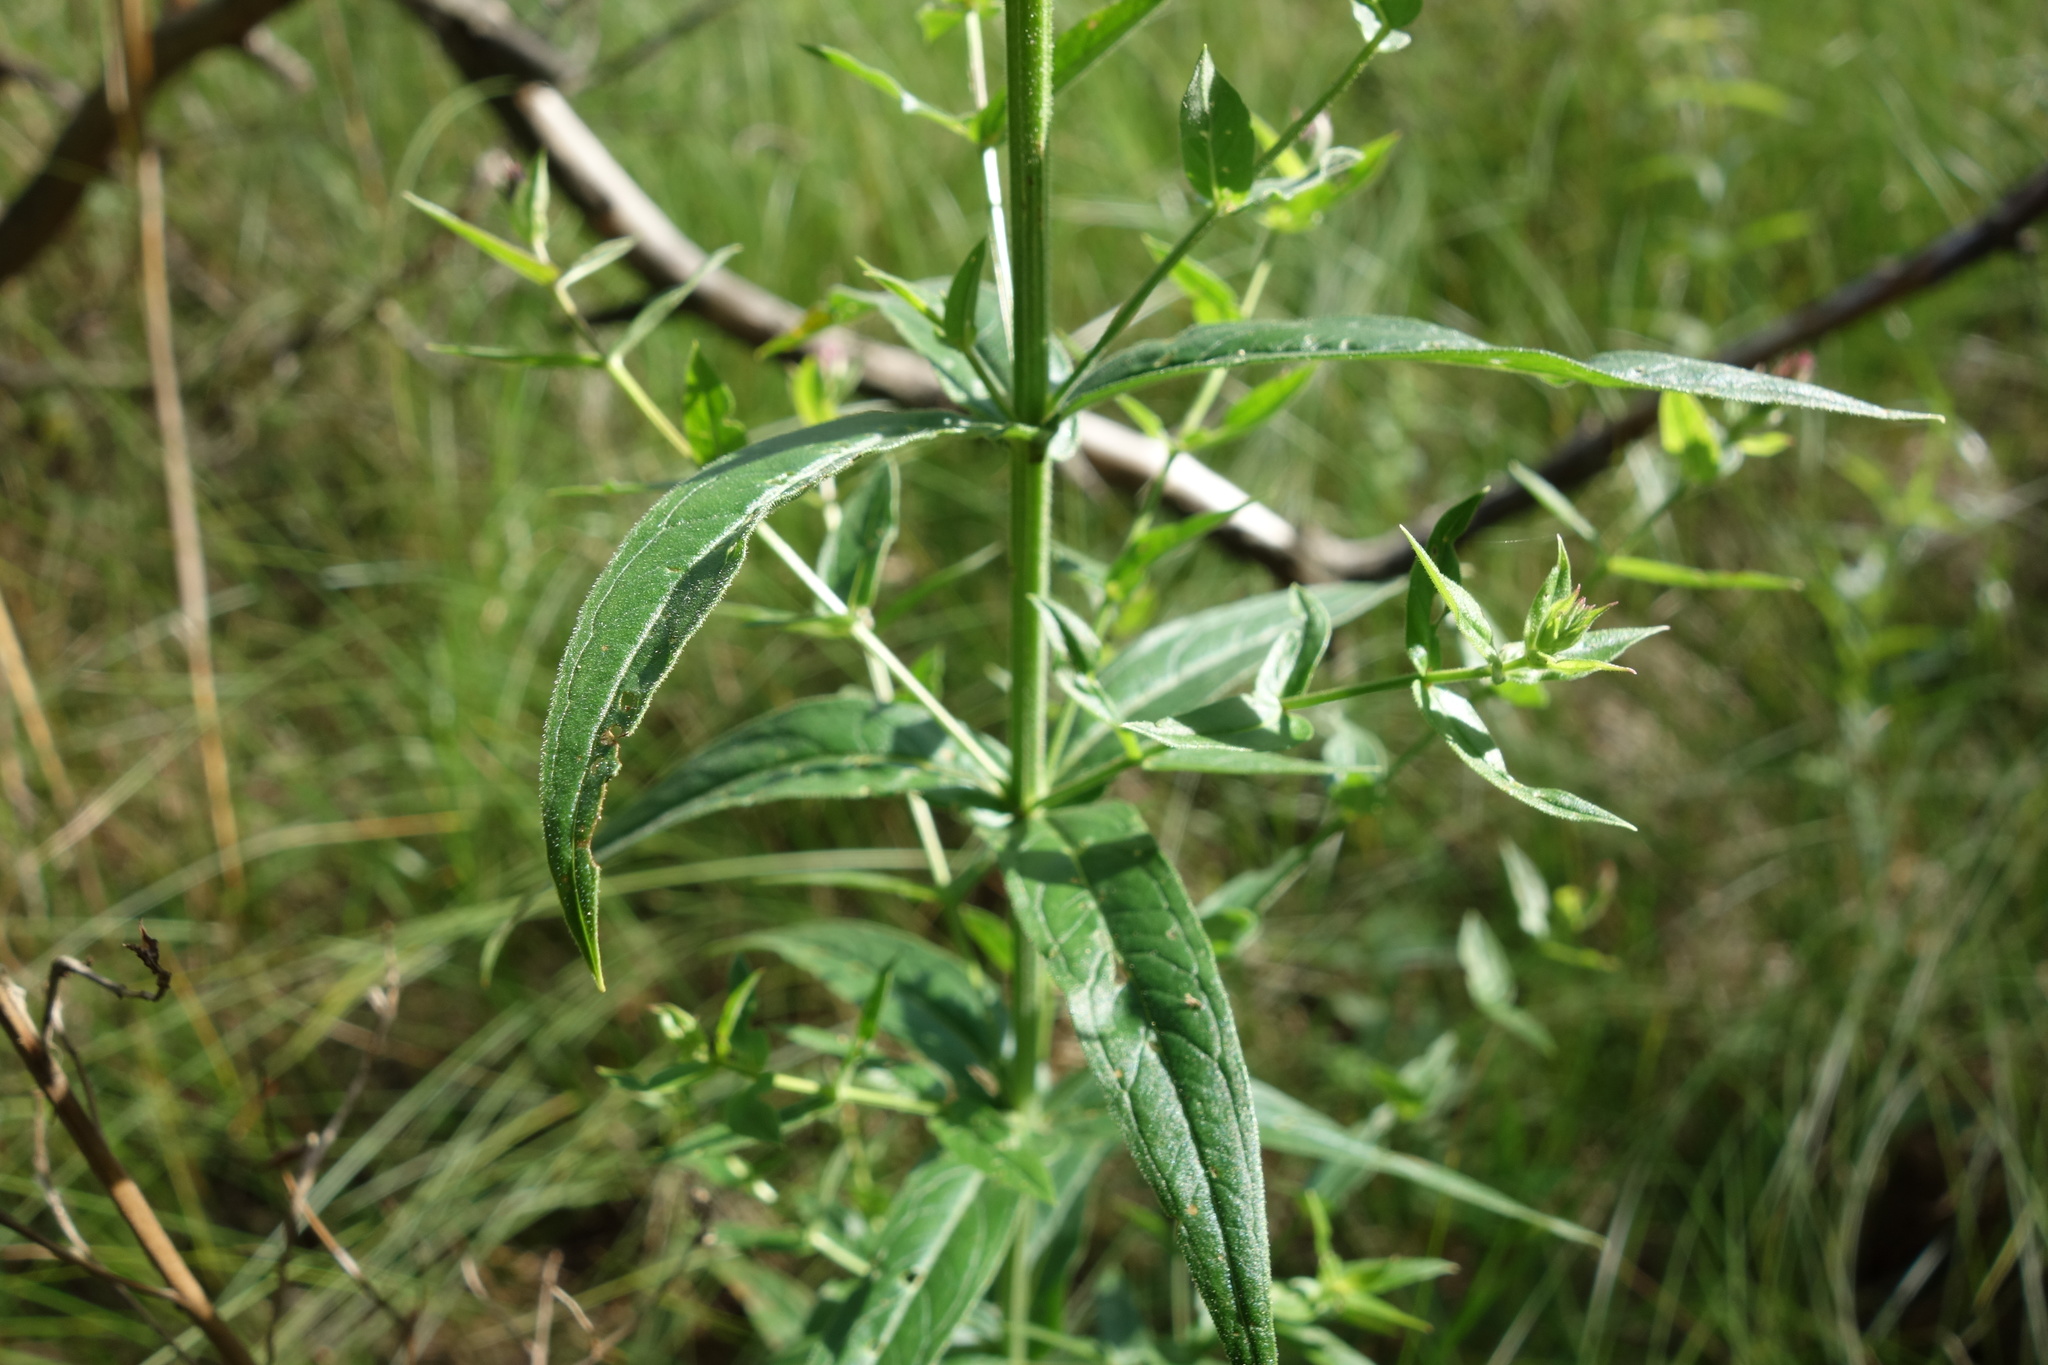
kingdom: Plantae
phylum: Tracheophyta
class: Magnoliopsida
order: Myrtales
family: Lythraceae
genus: Lythrum
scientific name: Lythrum salicaria
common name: Purple loosestrife
